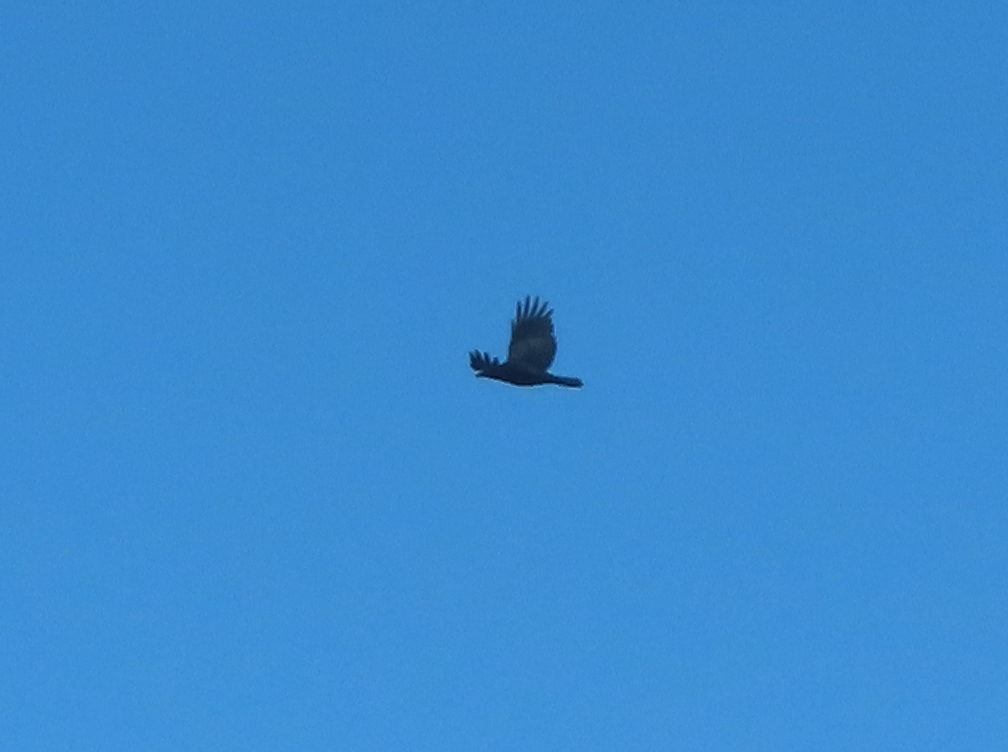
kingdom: Animalia
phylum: Chordata
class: Aves
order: Passeriformes
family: Corvidae
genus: Corvus
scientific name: Corvus brachyrhynchos
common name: American crow
